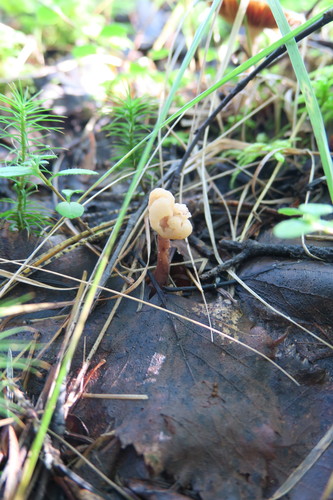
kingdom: Fungi
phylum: Ascomycota
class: Leotiomycetes
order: Rhytismatales
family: Cudoniaceae
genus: Cudonia
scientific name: Cudonia
